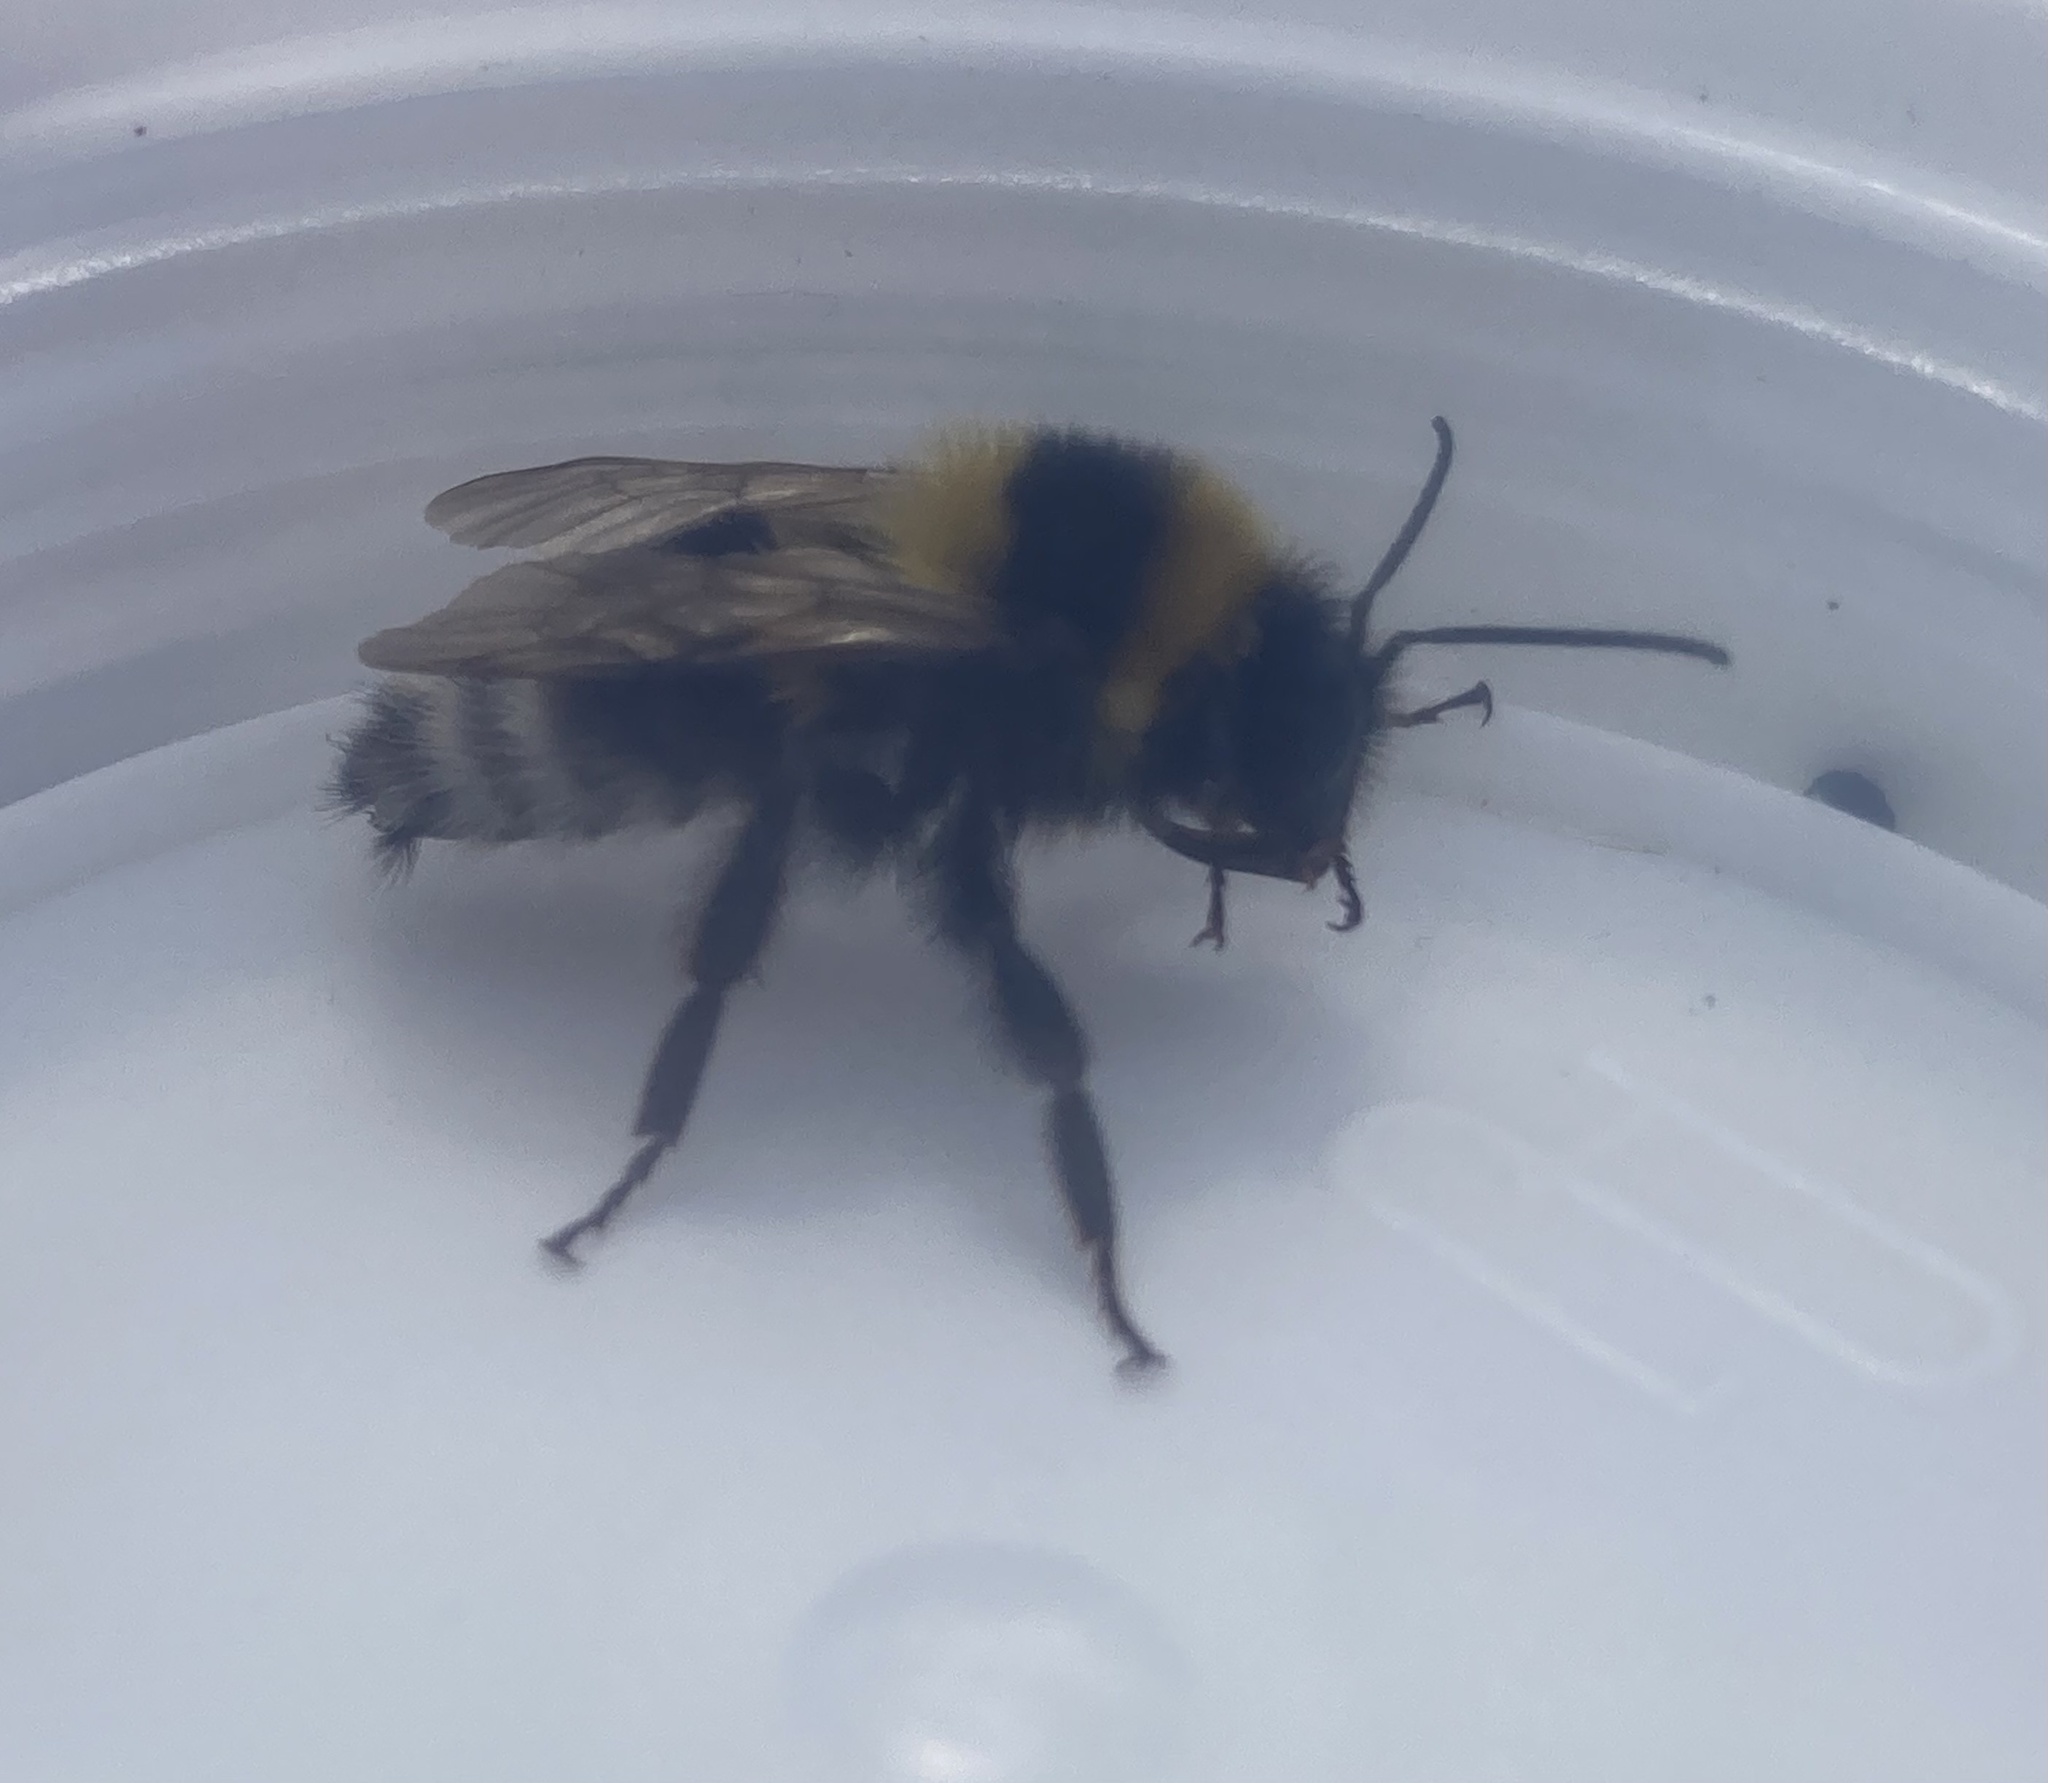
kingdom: Animalia
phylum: Arthropoda
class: Insecta
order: Hymenoptera
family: Apidae
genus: Bombus
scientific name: Bombus hortorum
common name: Garden bumblebee
